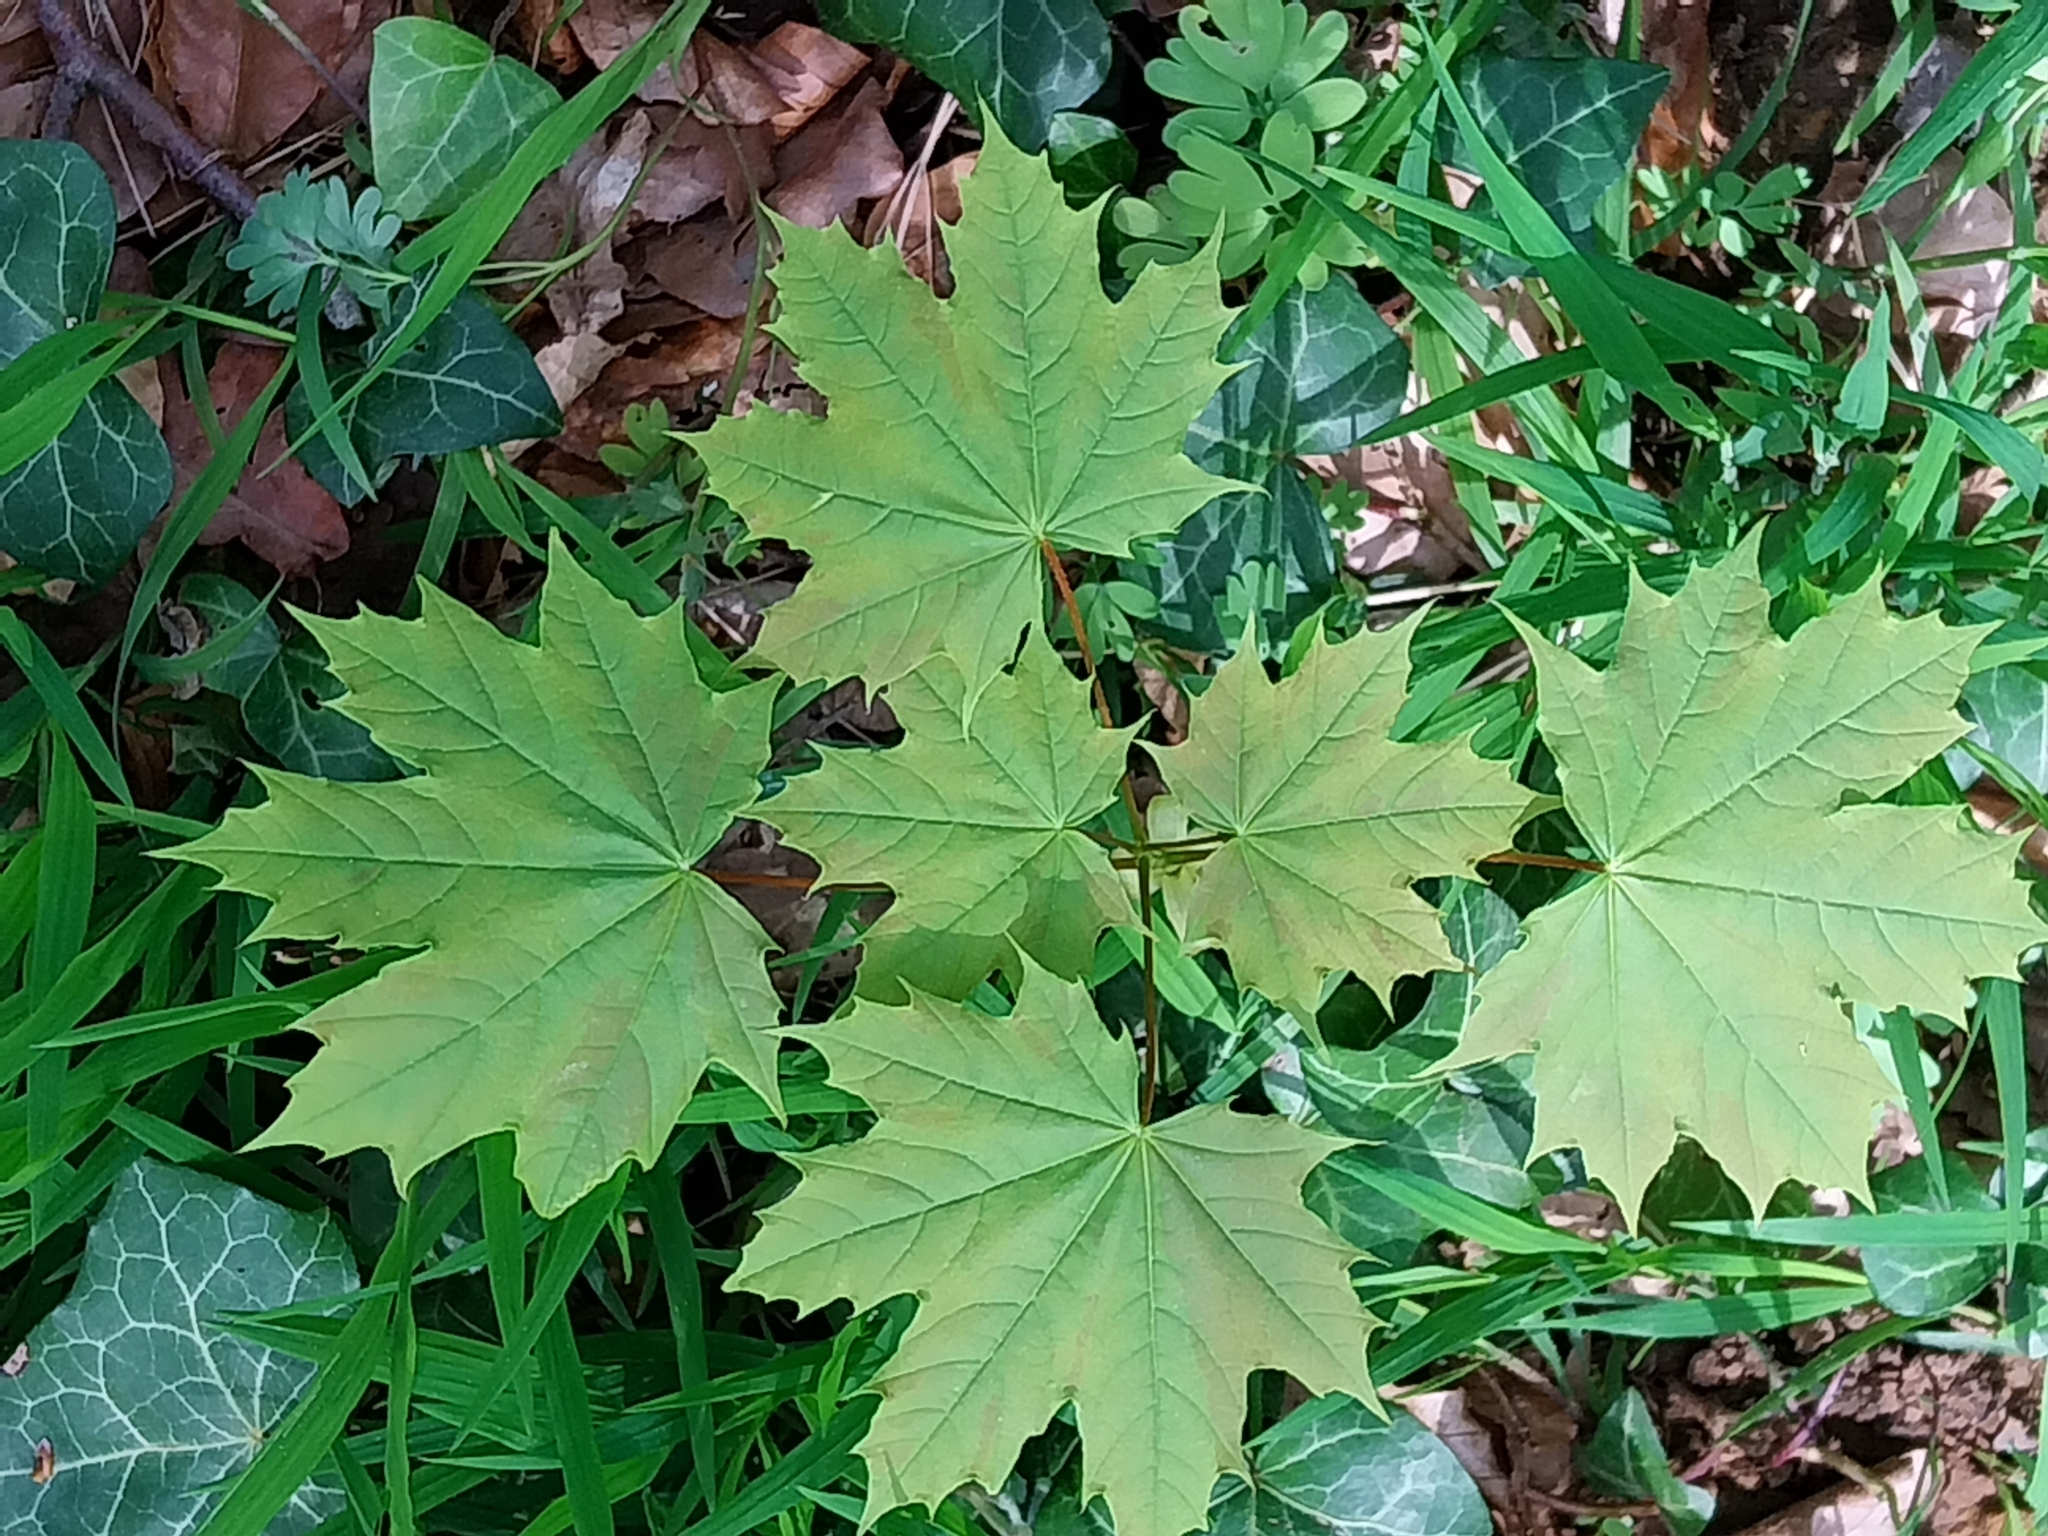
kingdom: Plantae
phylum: Tracheophyta
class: Magnoliopsida
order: Sapindales
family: Sapindaceae
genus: Acer
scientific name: Acer platanoides
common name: Norway maple
